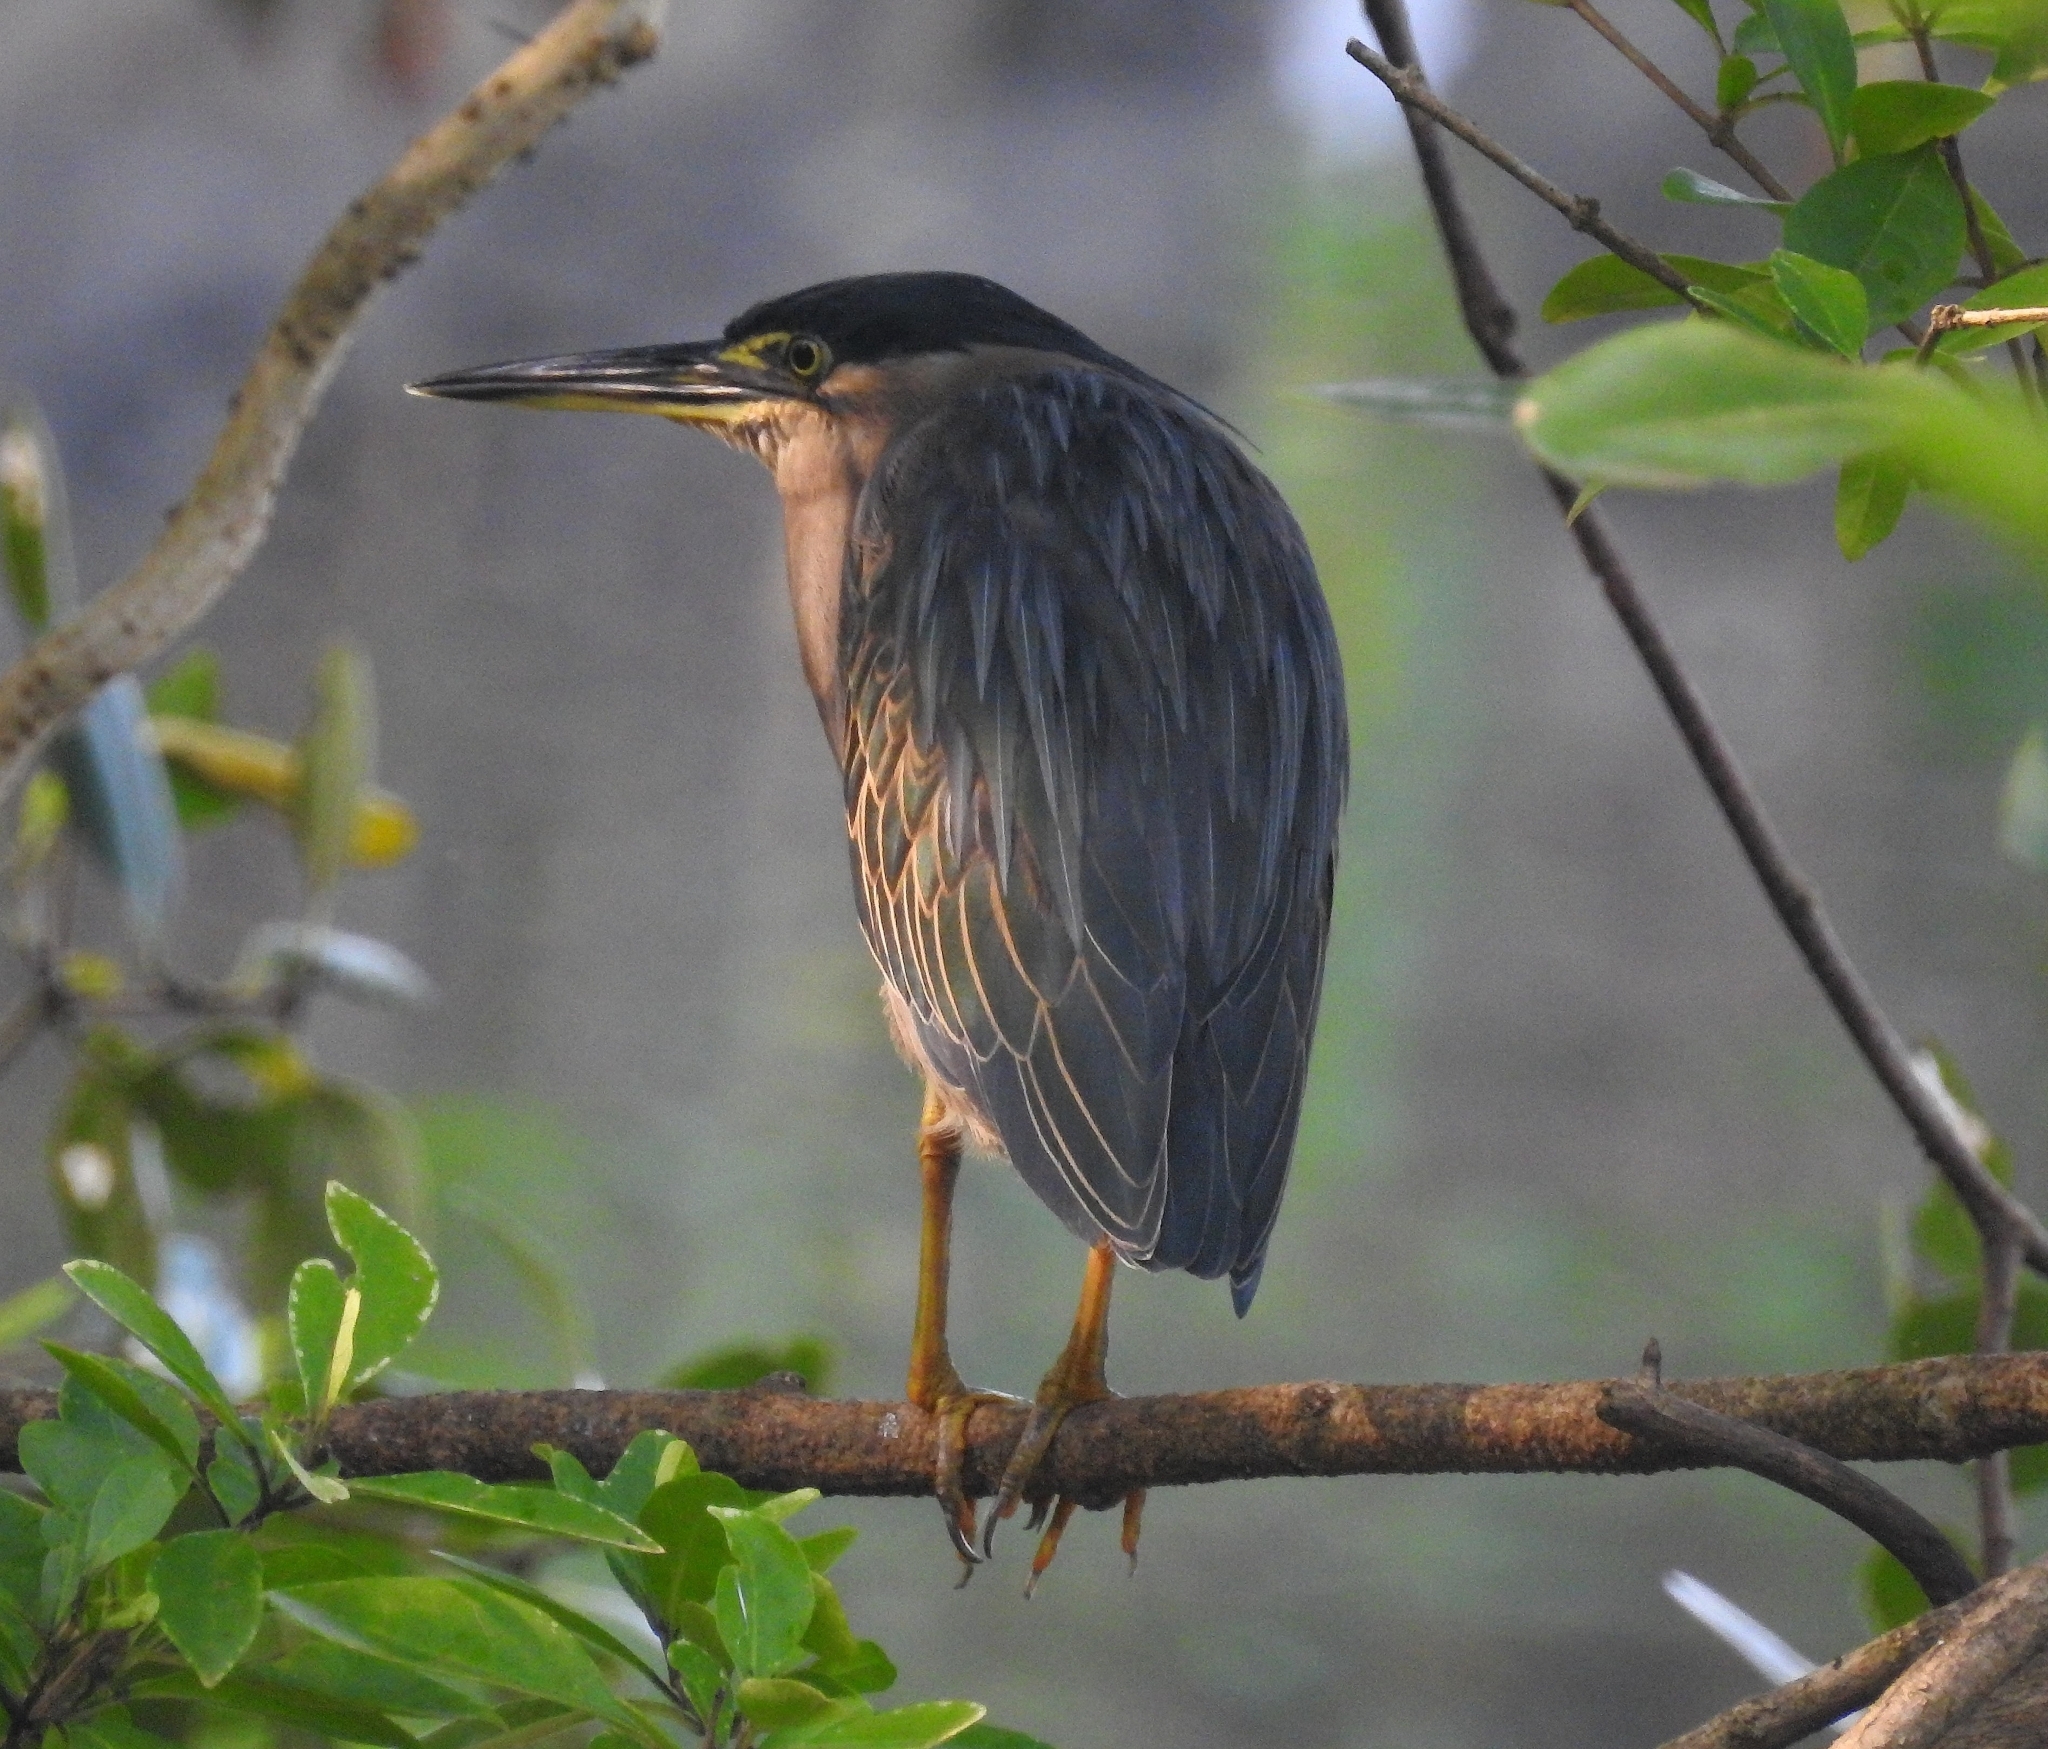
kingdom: Animalia
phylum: Chordata
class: Aves
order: Pelecaniformes
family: Ardeidae
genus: Butorides
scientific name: Butorides striata
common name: Striated heron
